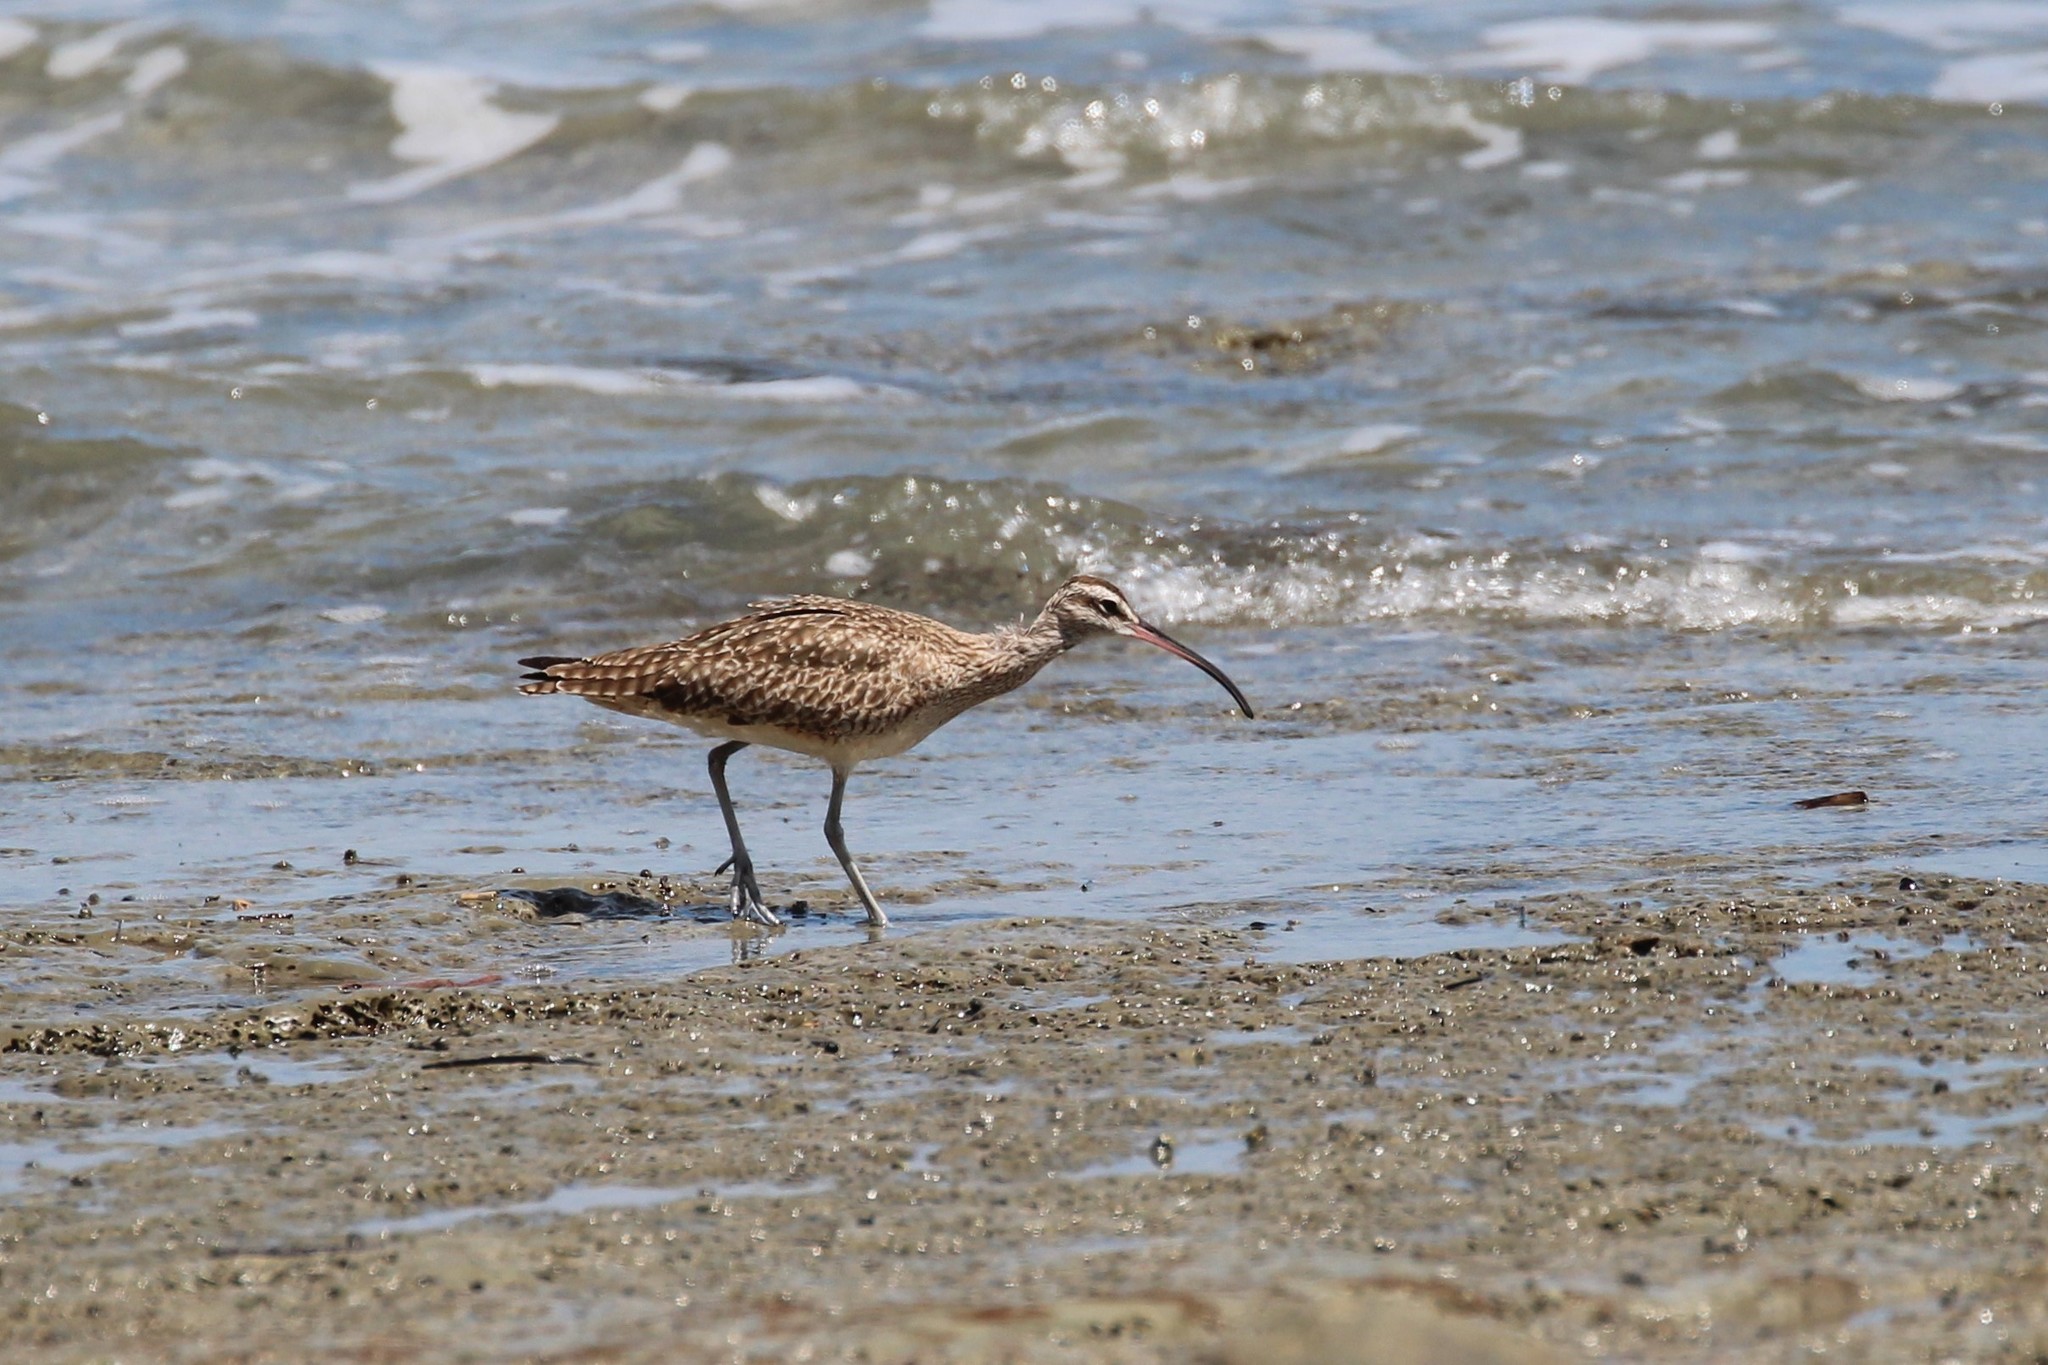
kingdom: Animalia
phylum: Chordata
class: Aves
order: Charadriiformes
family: Scolopacidae
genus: Numenius
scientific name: Numenius phaeopus
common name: Whimbrel
